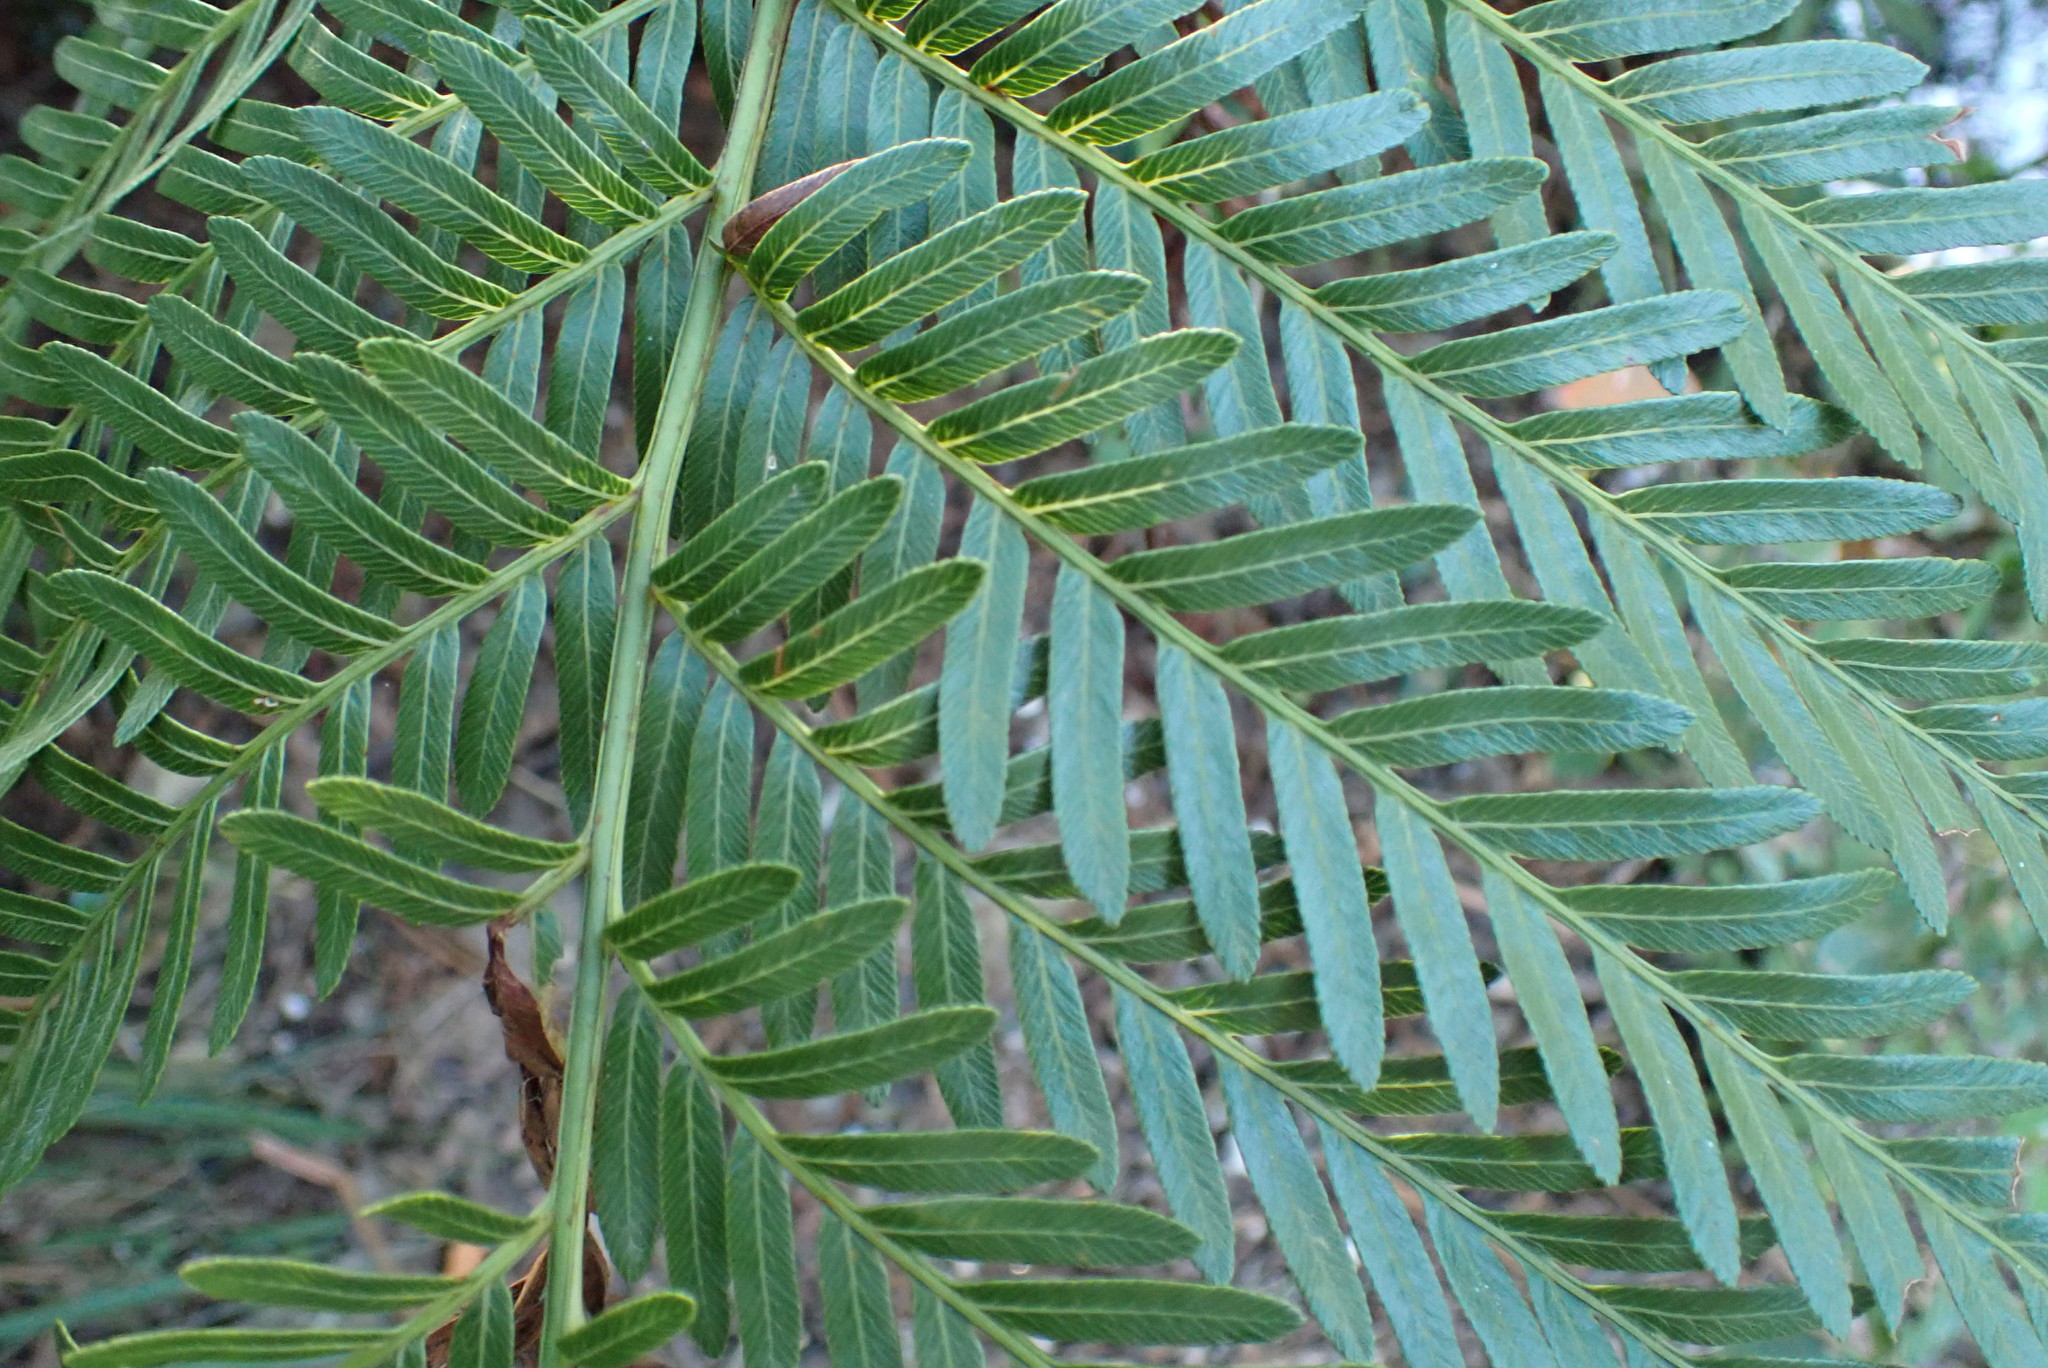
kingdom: Plantae
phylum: Tracheophyta
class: Polypodiopsida
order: Osmundales
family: Osmundaceae
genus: Todea
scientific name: Todea barbara
